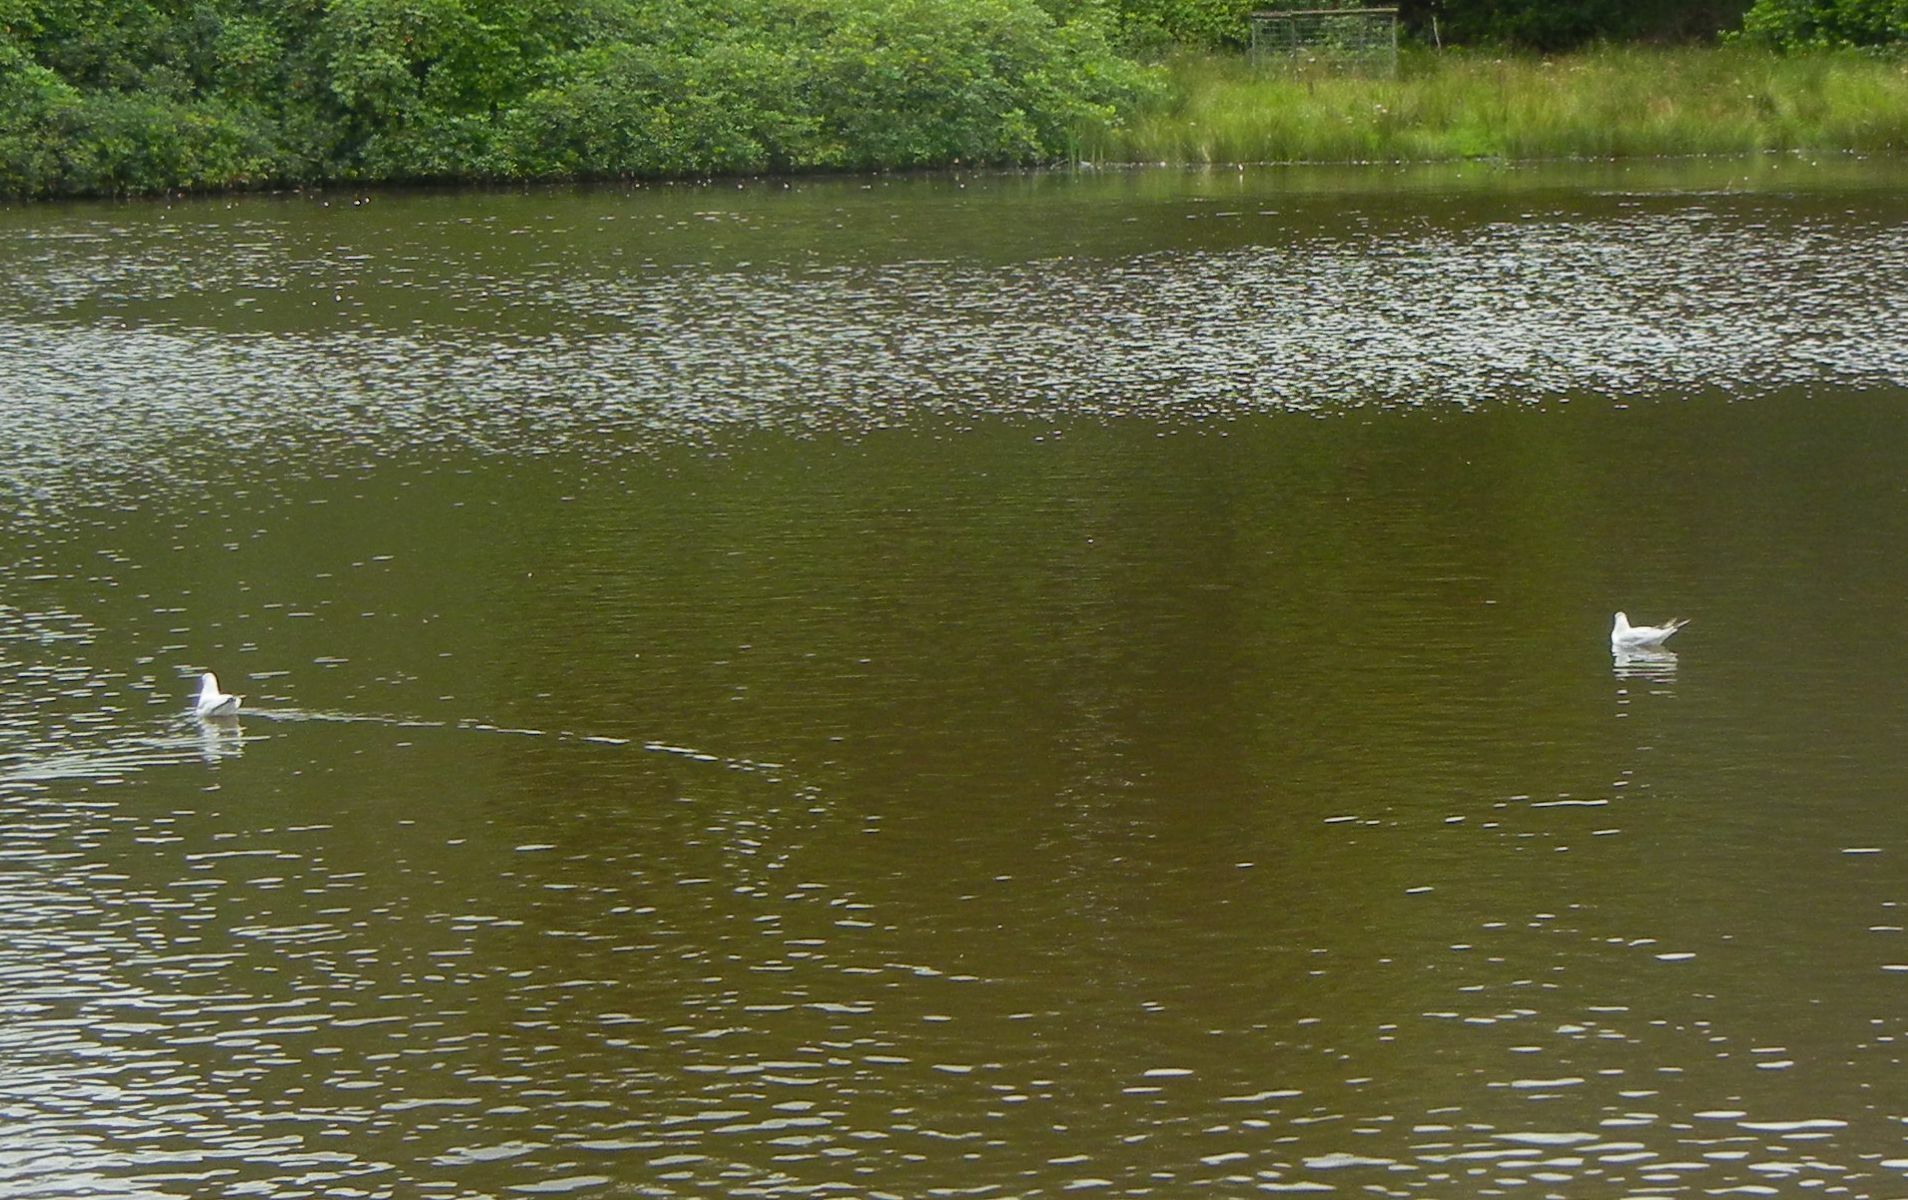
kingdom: Animalia
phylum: Chordata
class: Aves
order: Charadriiformes
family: Laridae
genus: Chroicocephalus
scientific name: Chroicocephalus ridibundus
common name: Black-headed gull
